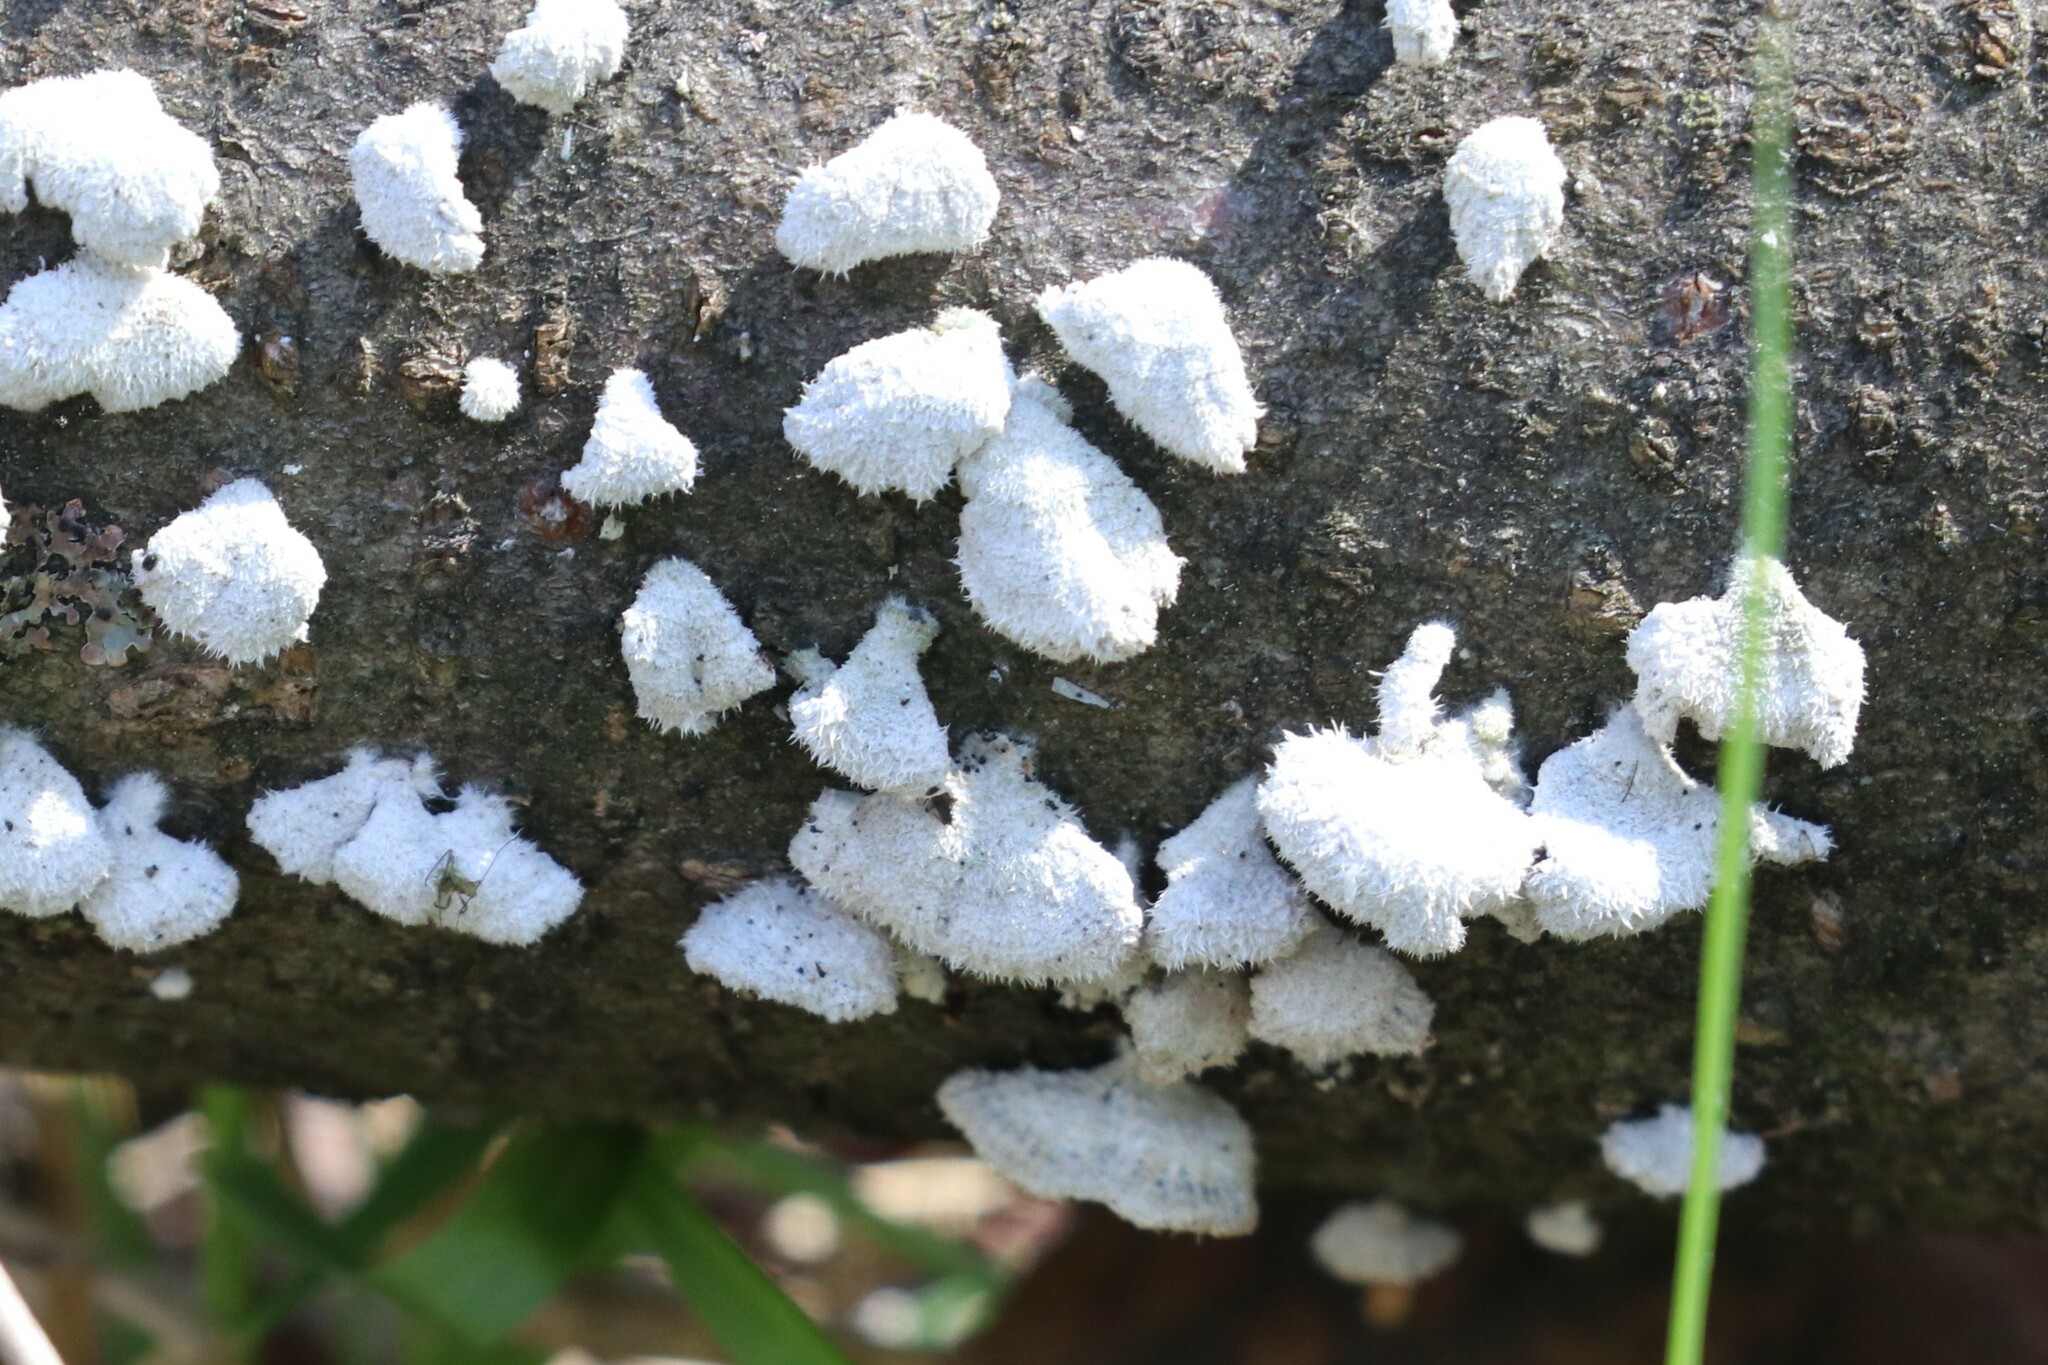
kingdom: Fungi
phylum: Basidiomycota
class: Agaricomycetes
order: Agaricales
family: Schizophyllaceae
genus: Schizophyllum
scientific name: Schizophyllum commune
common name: Common porecrust
